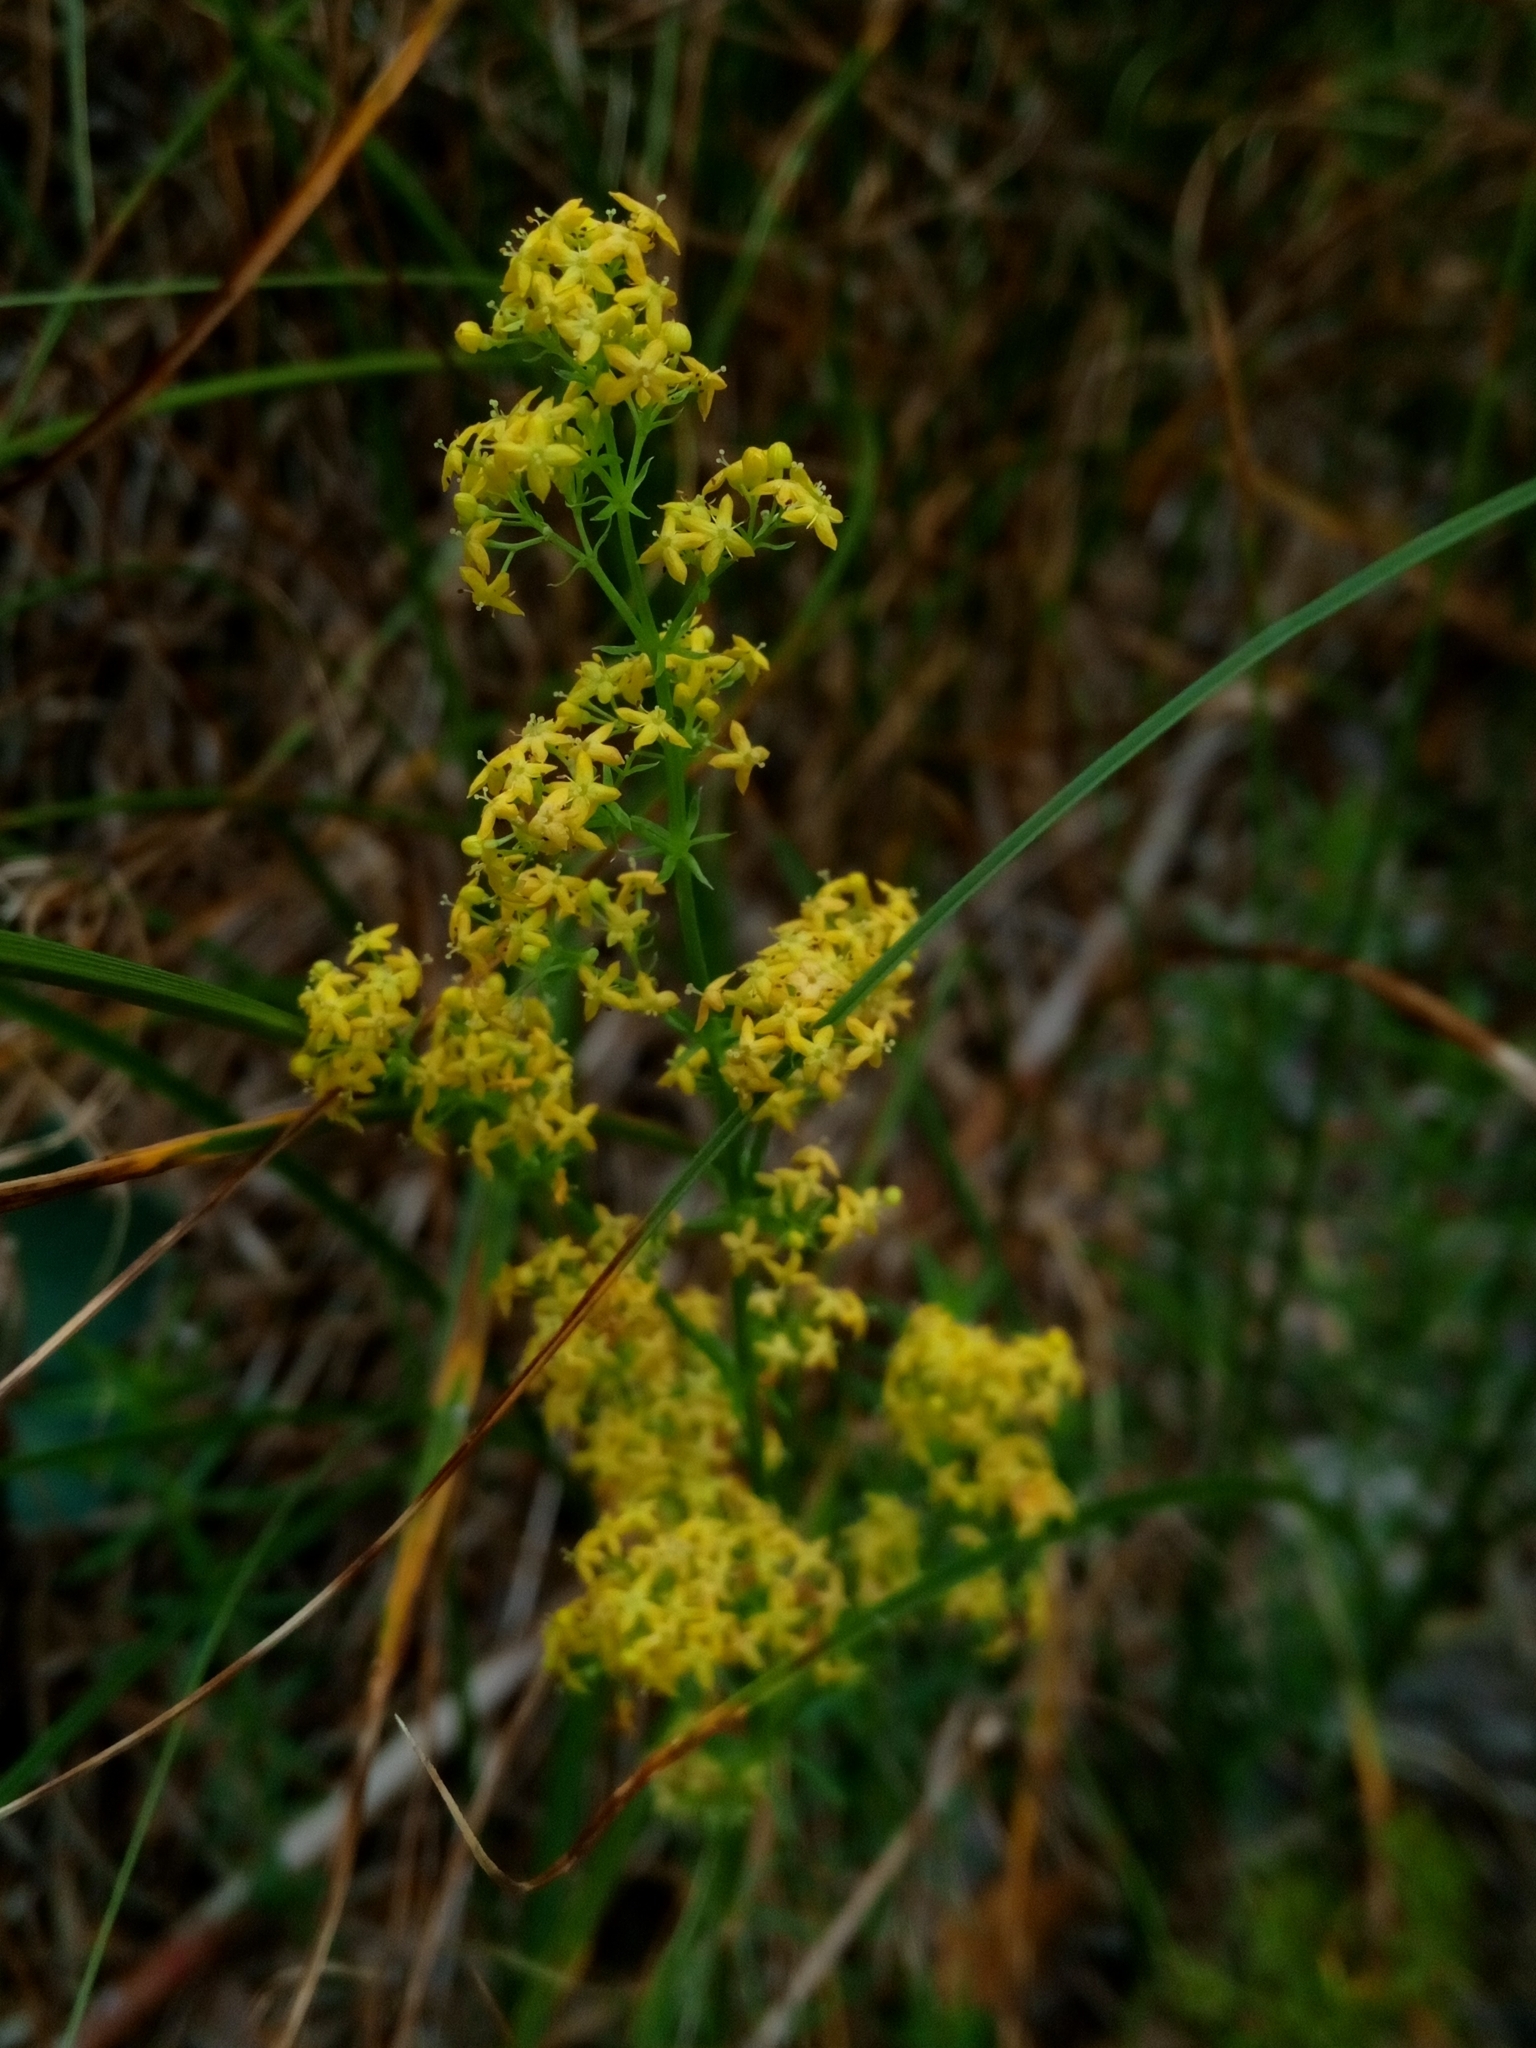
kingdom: Plantae
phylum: Tracheophyta
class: Magnoliopsida
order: Gentianales
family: Rubiaceae
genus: Galium
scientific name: Galium verum
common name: Lady's bedstraw
